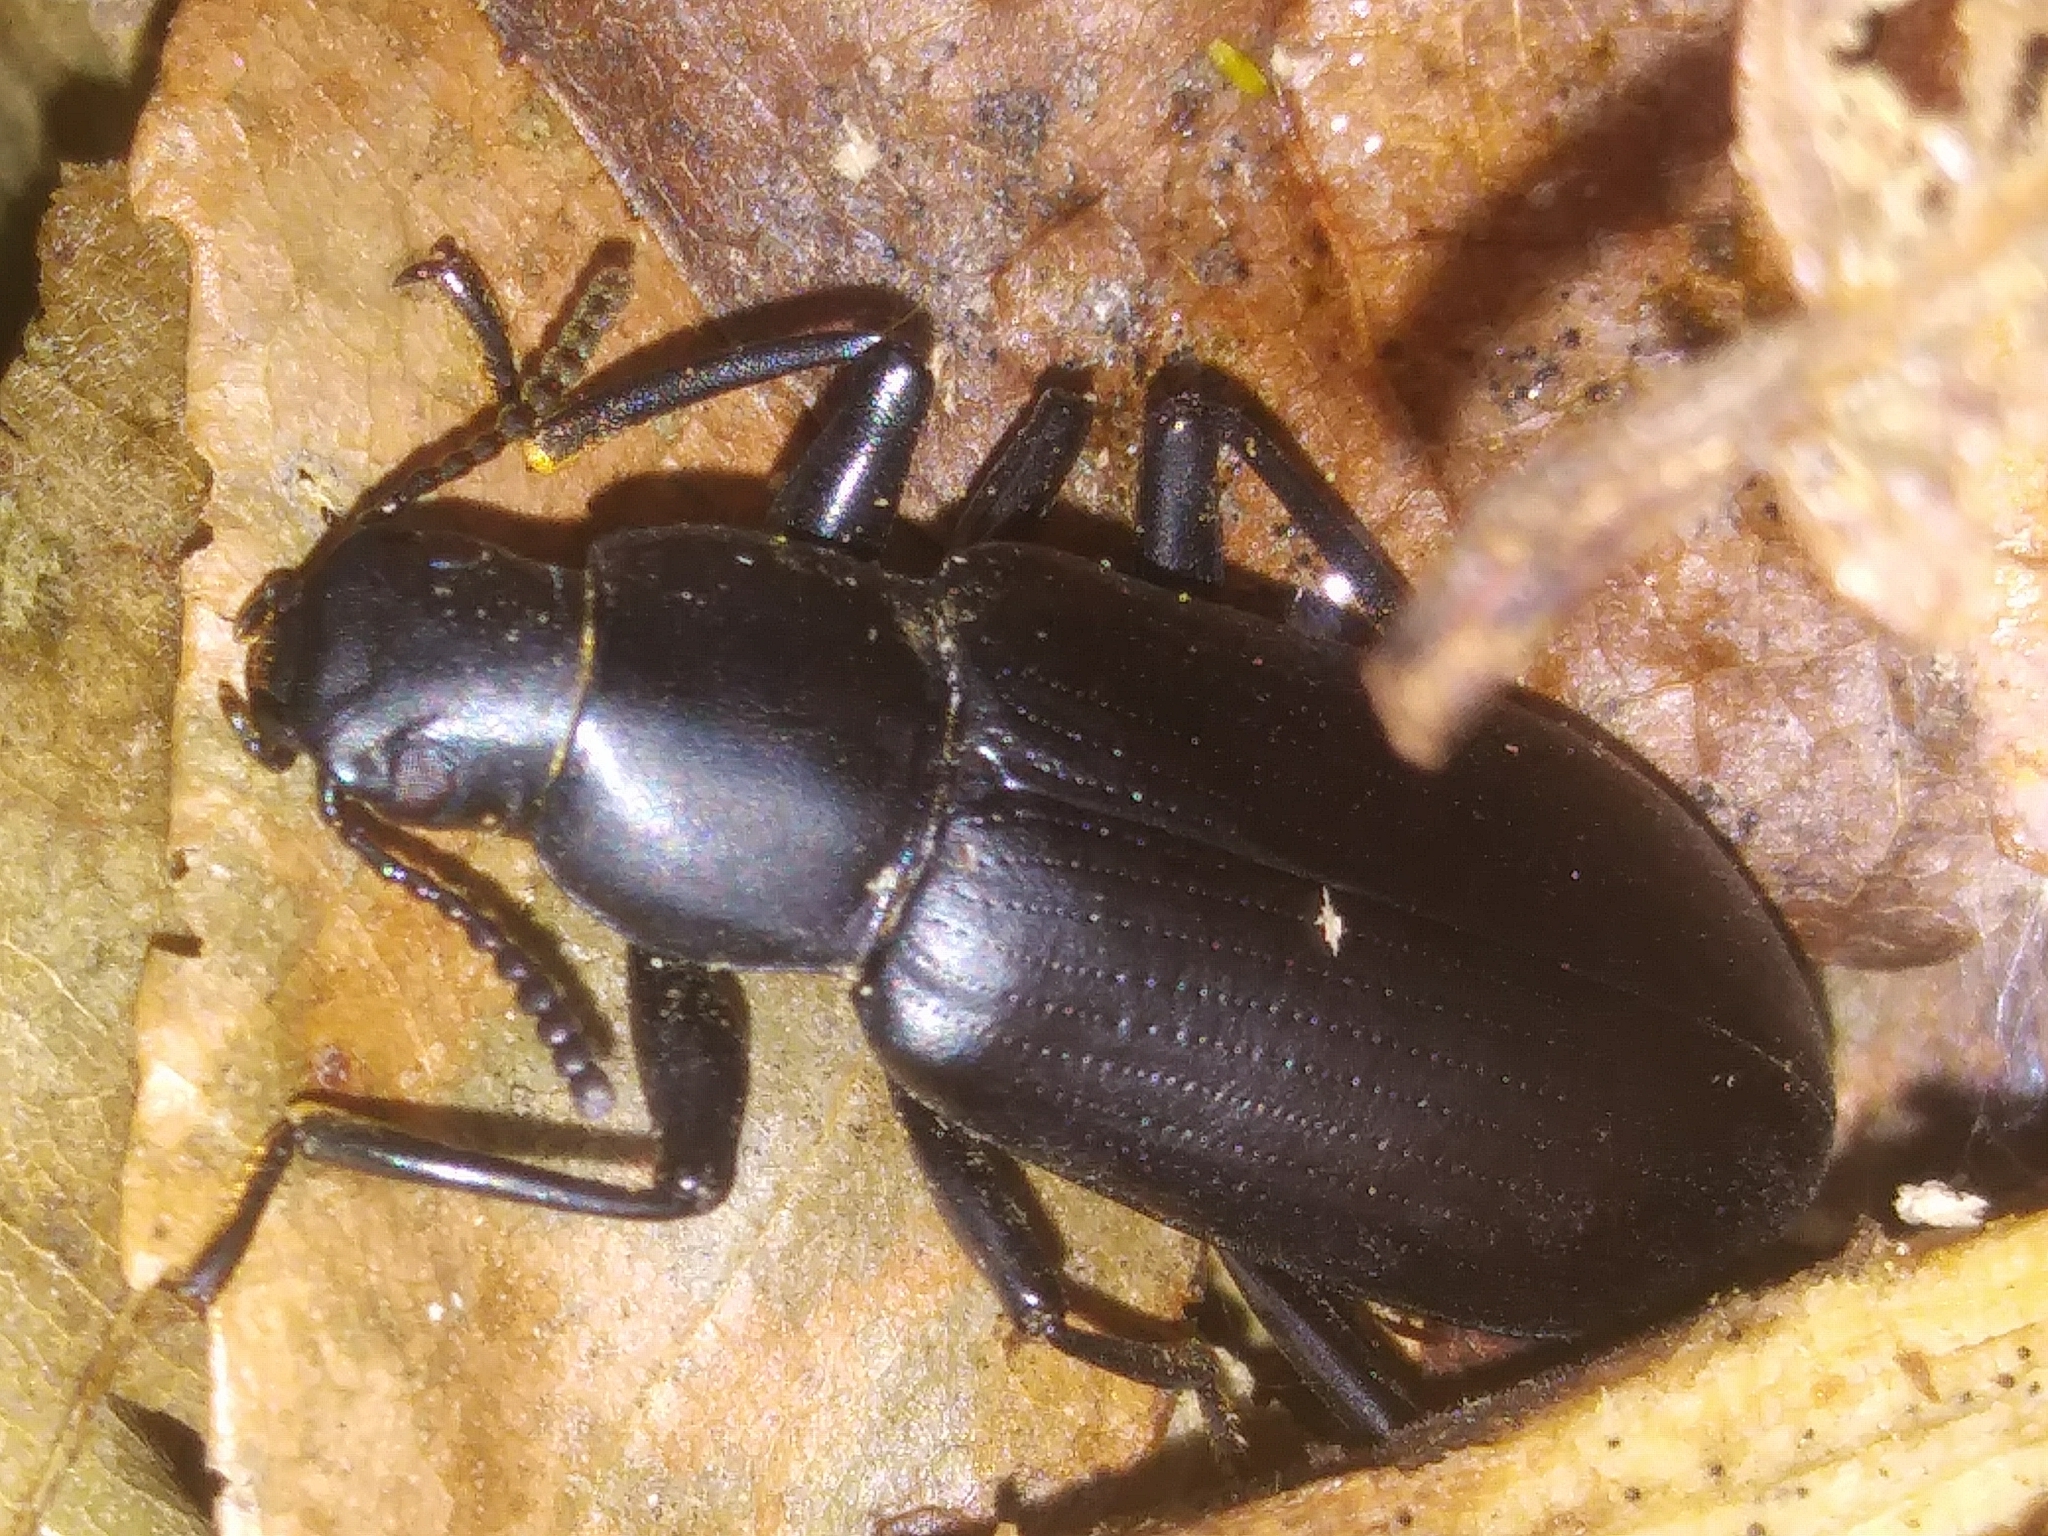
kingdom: Animalia
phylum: Arthropoda
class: Insecta
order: Coleoptera
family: Tenebrionidae
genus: Alobates
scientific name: Alobates pensylvanicus
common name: False mealworm beetle
